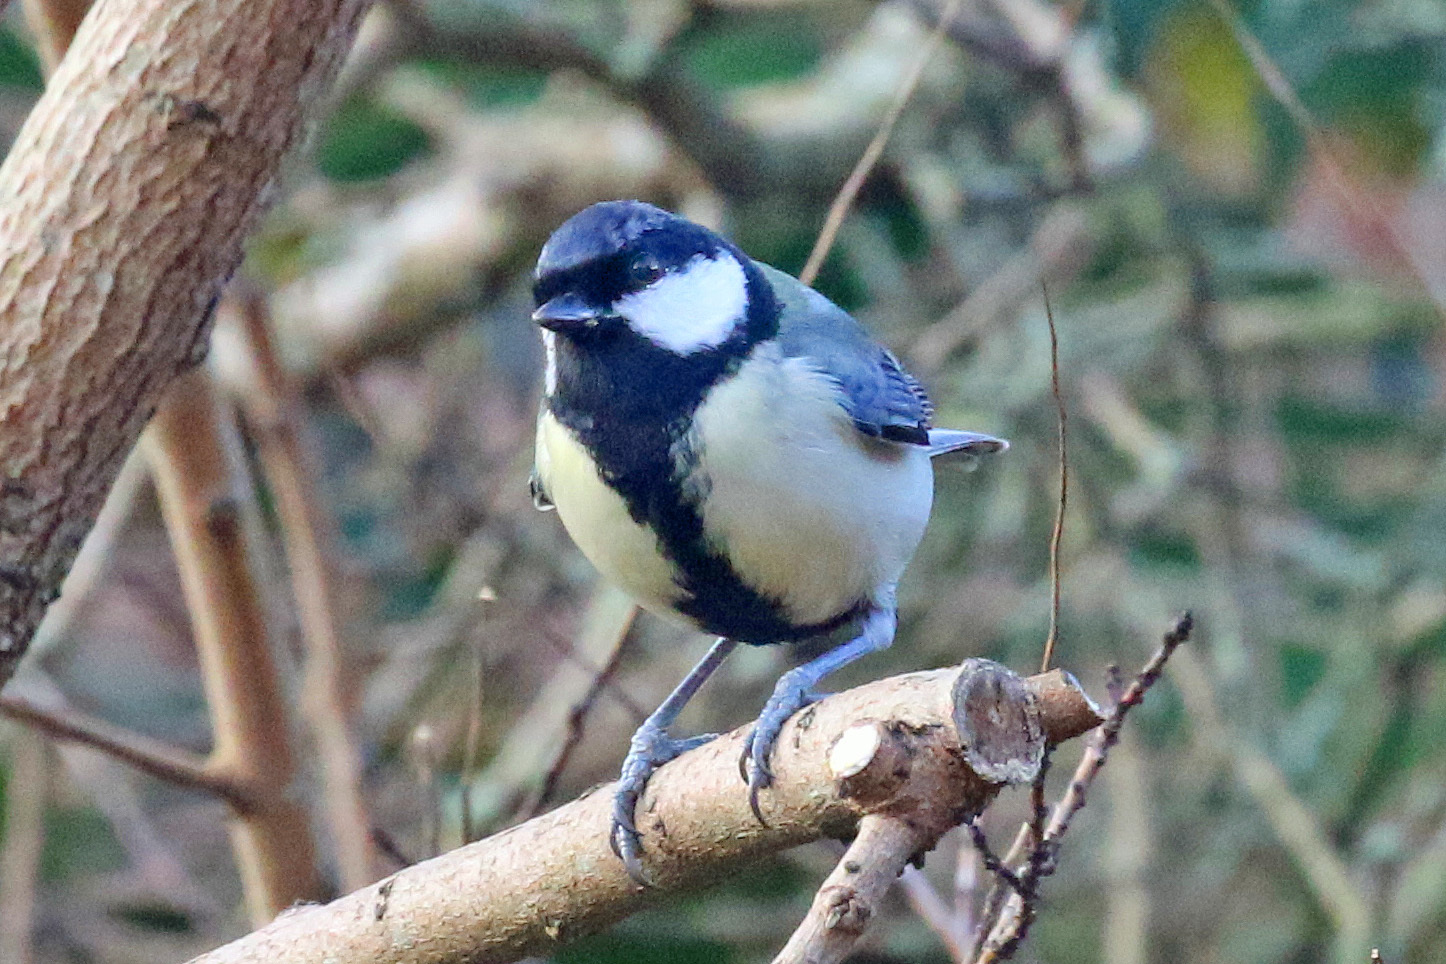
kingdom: Animalia
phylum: Chordata
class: Aves
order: Passeriformes
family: Paridae
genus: Parus
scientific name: Parus major
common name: Great tit
